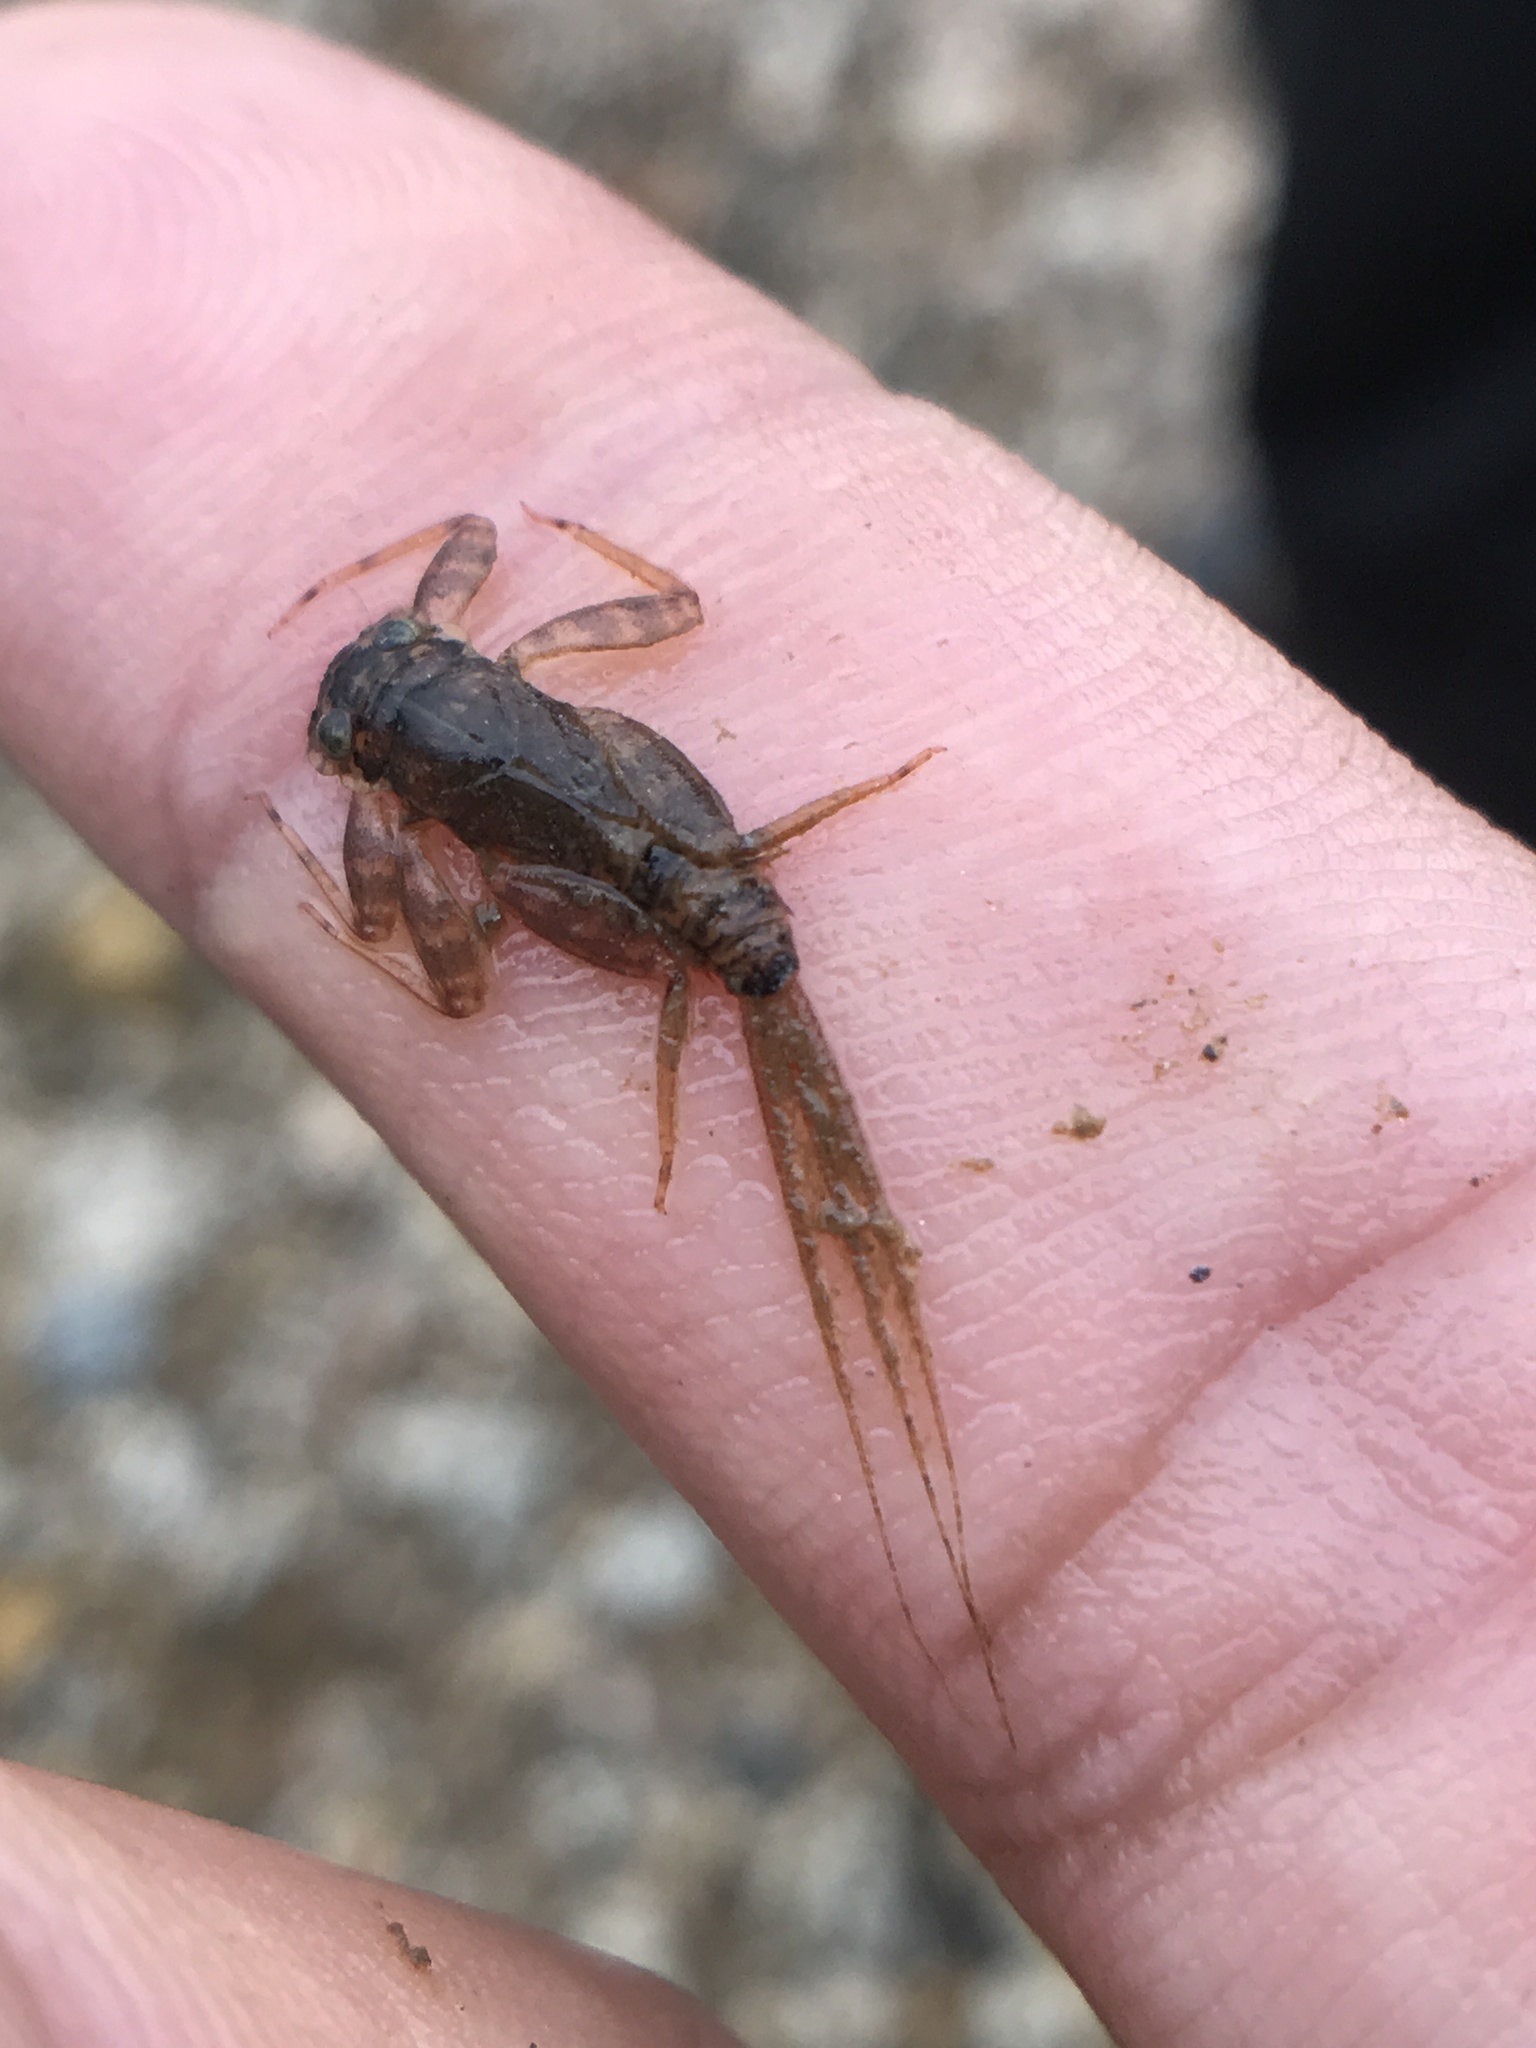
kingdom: Animalia
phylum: Arthropoda
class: Insecta
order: Ephemeroptera
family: Heptageniidae
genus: Maccaffertium
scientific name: Maccaffertium mediopunctatum
